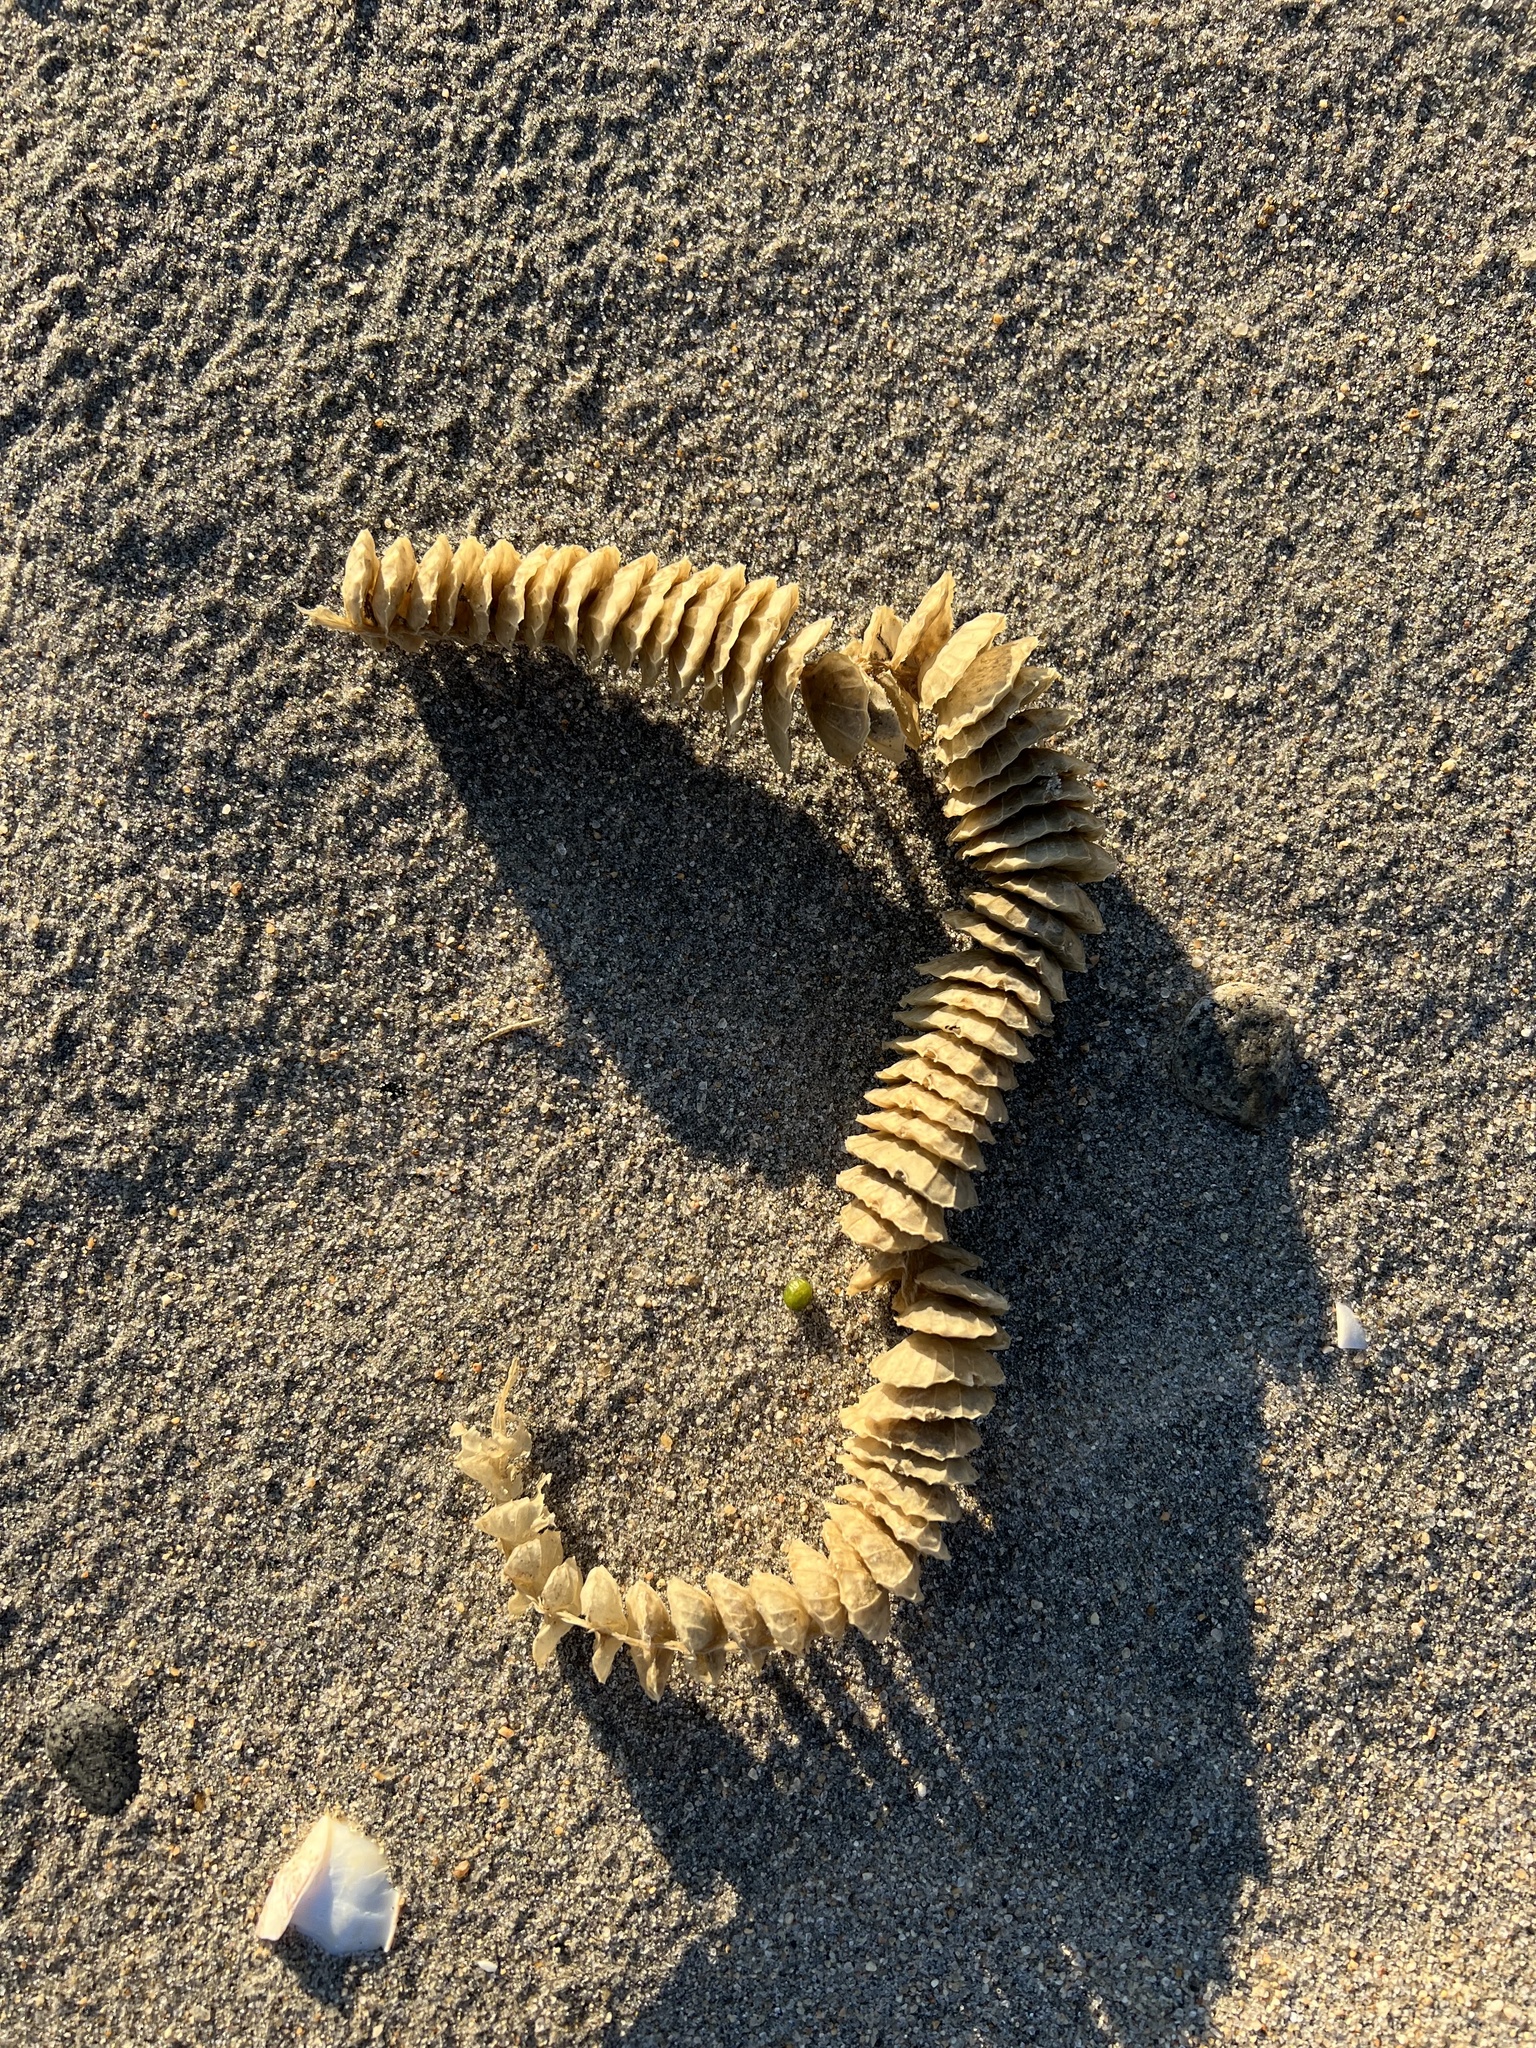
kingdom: Animalia
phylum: Mollusca
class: Gastropoda
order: Neogastropoda
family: Busyconidae
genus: Busycotypus
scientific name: Busycotypus canaliculatus
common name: Channeled whelk
